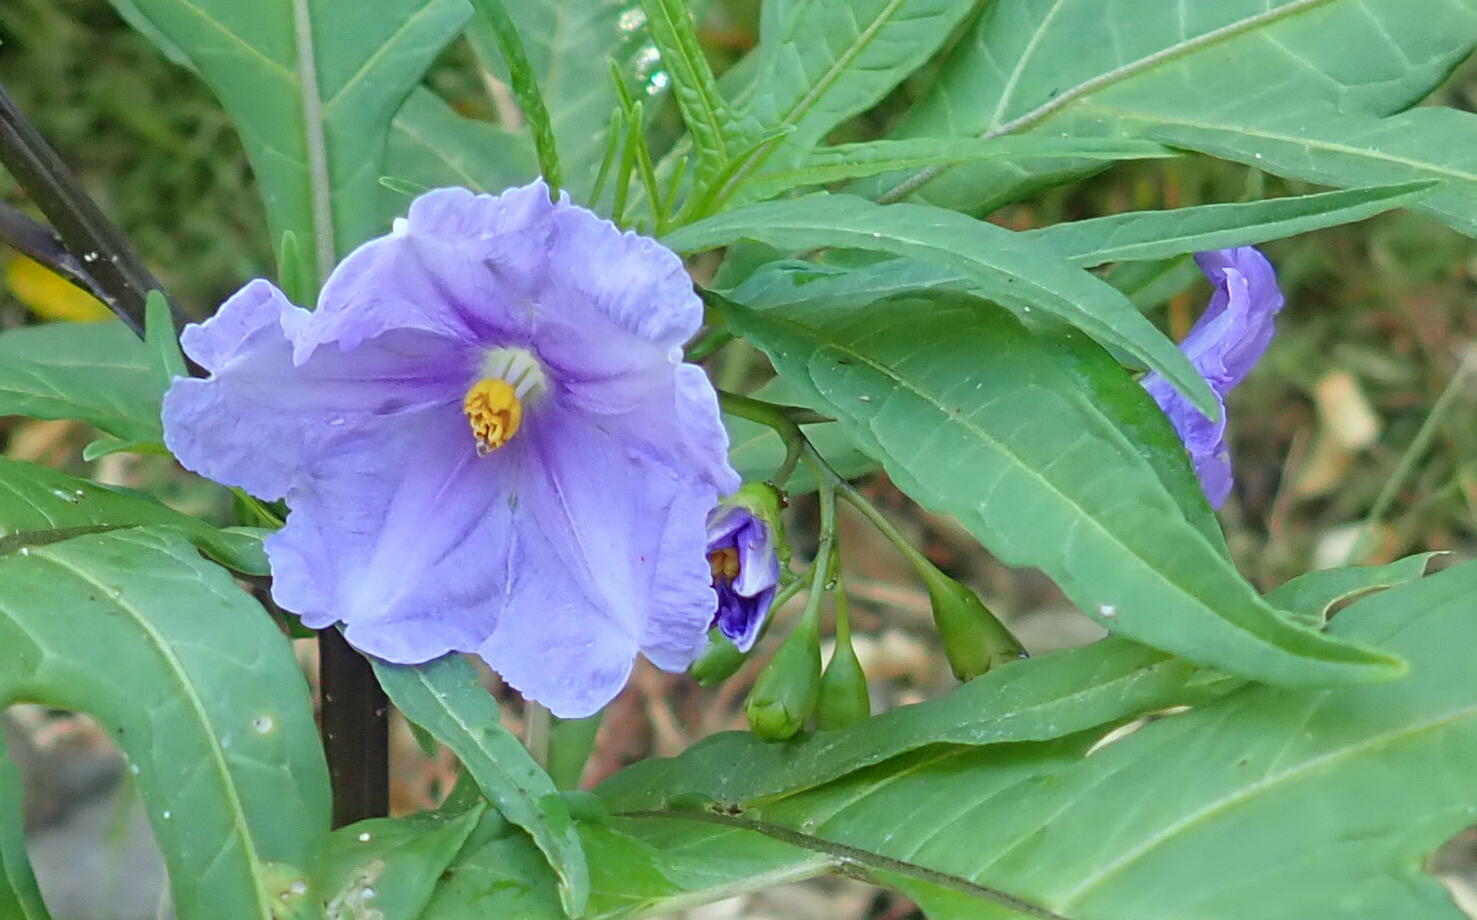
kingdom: Plantae
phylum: Tracheophyta
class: Magnoliopsida
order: Solanales
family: Solanaceae
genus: Solanum
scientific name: Solanum laciniatum
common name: Kangaroo-apple
